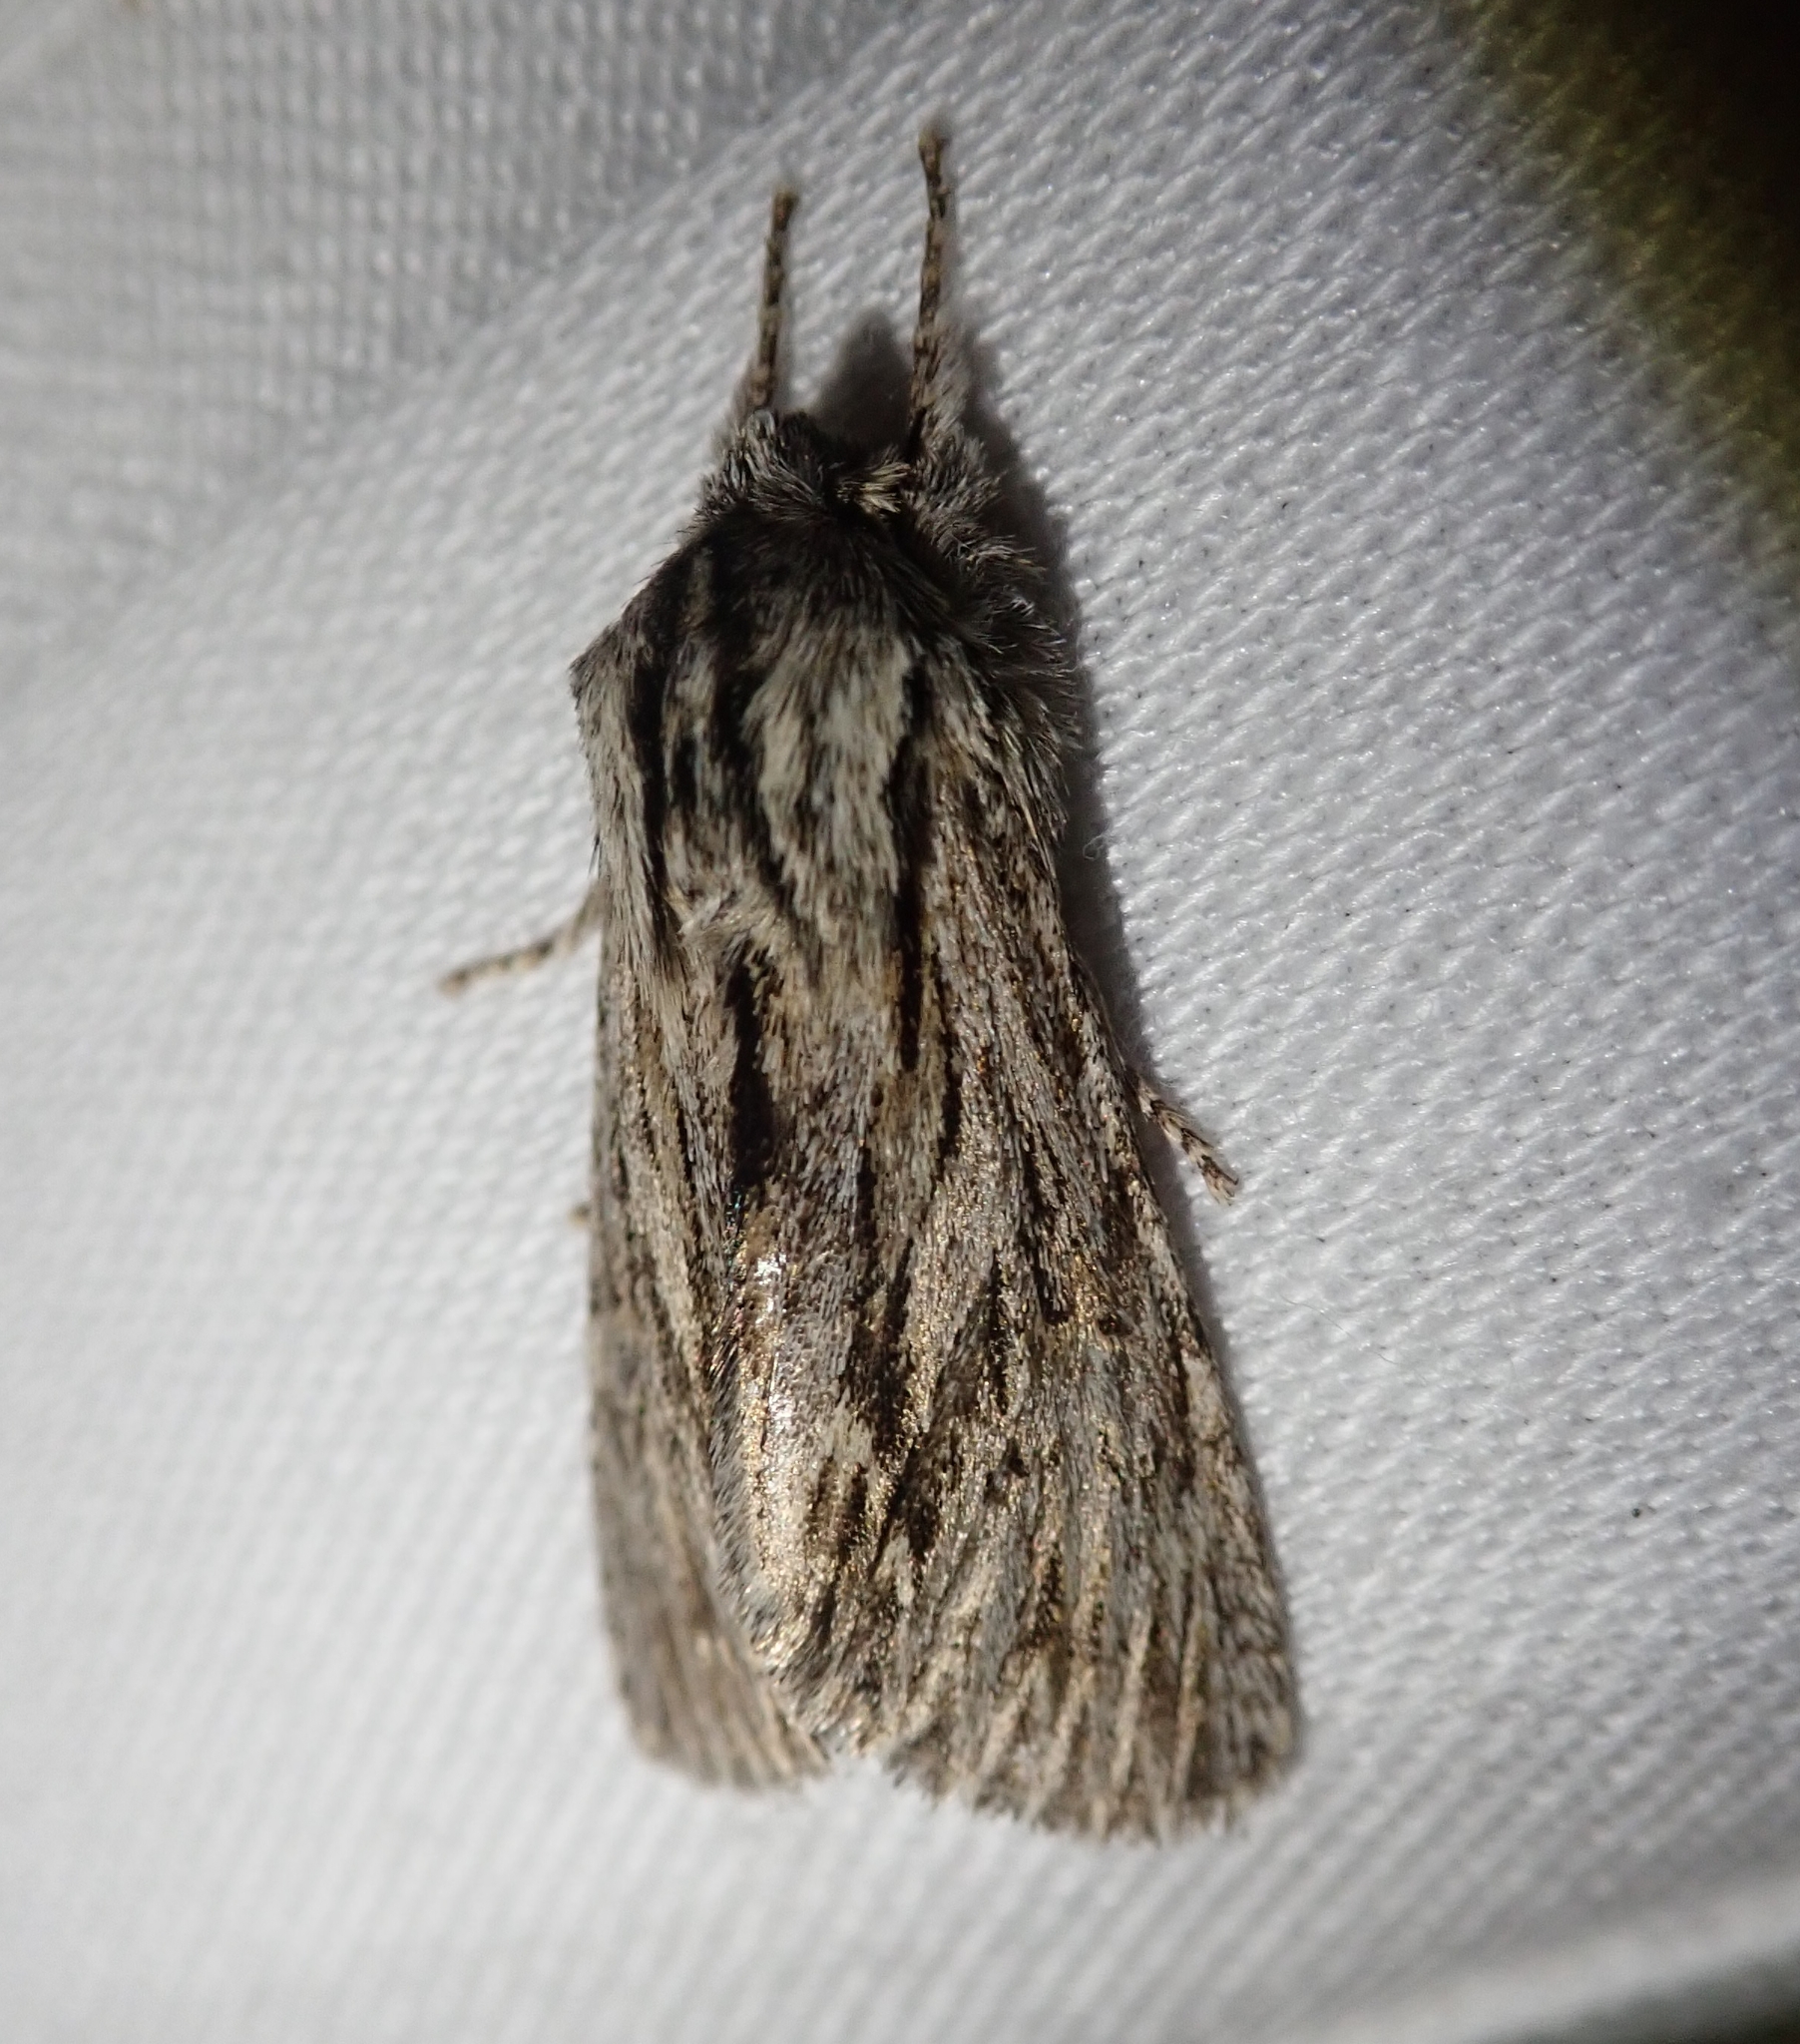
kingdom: Animalia
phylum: Arthropoda
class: Insecta
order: Lepidoptera
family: Noctuidae
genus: Asteroscopus
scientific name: Asteroscopus sphinx
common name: The sprawler
